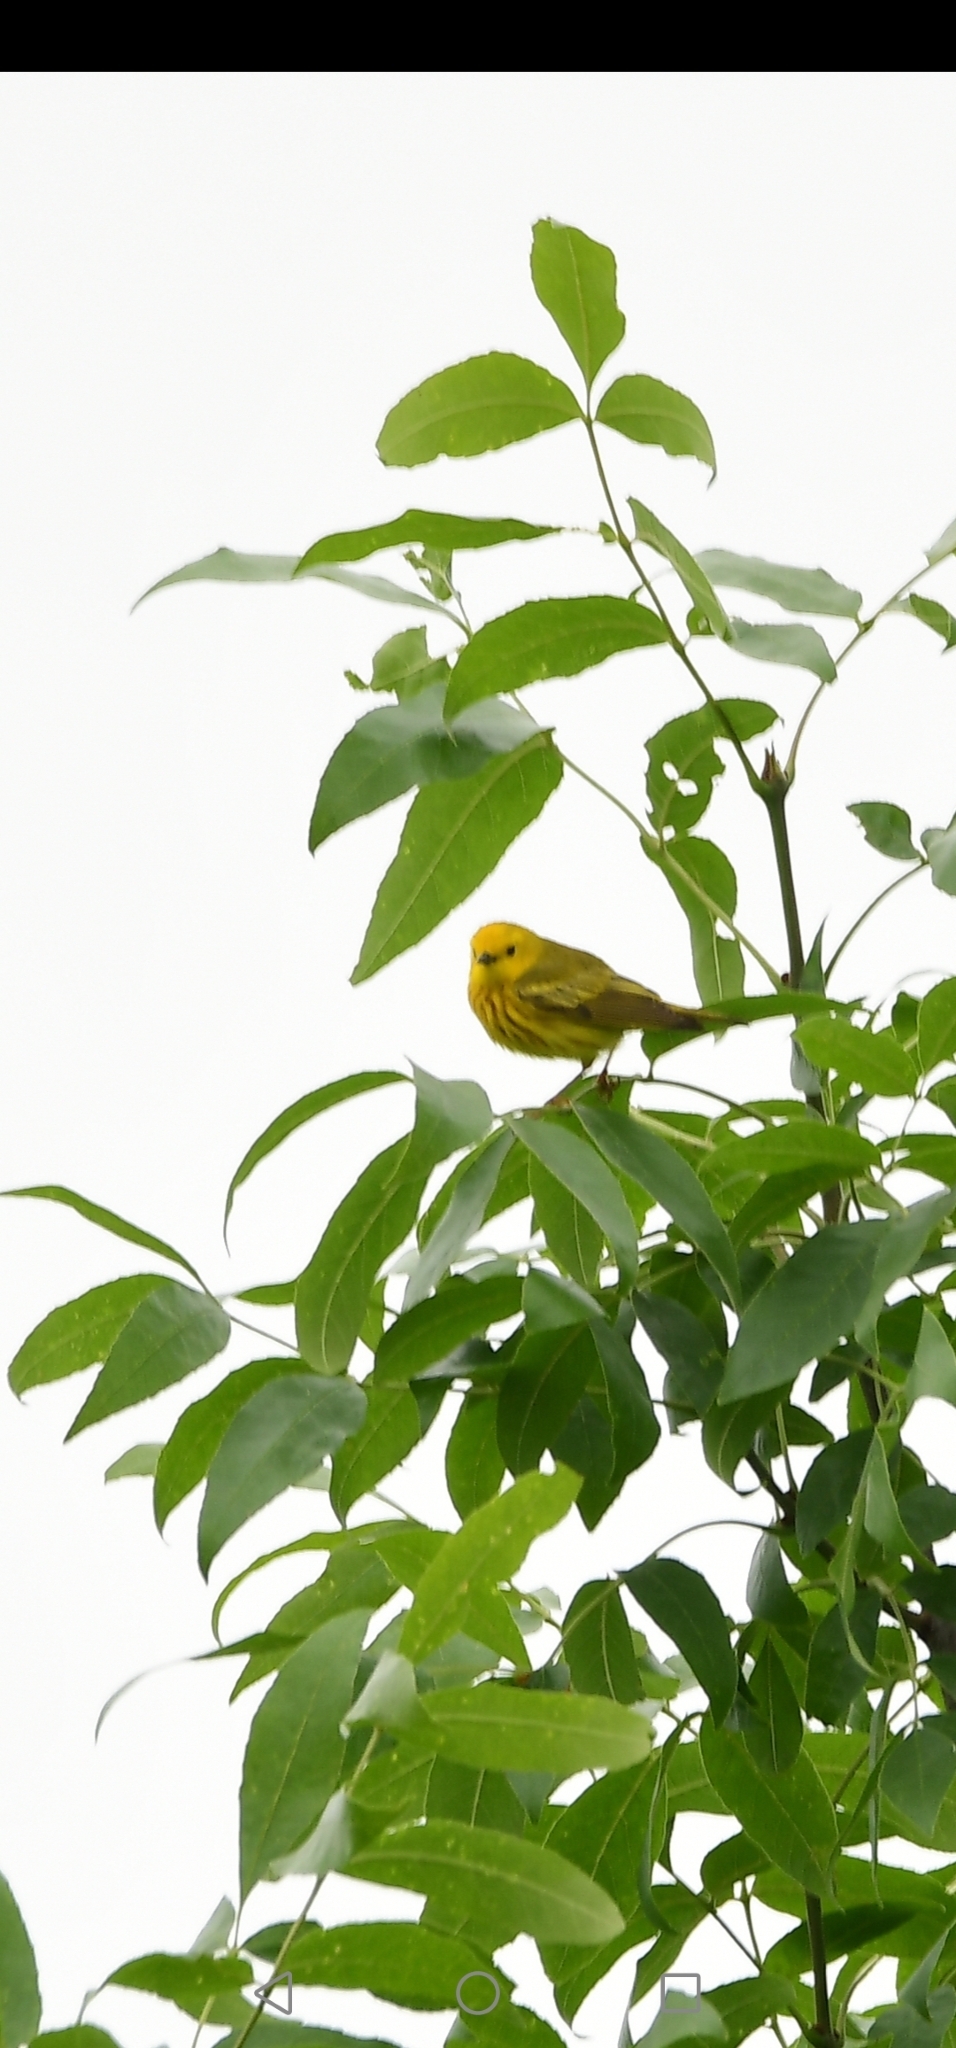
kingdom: Animalia
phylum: Chordata
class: Aves
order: Passeriformes
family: Parulidae
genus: Setophaga
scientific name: Setophaga petechia
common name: Yellow warbler
